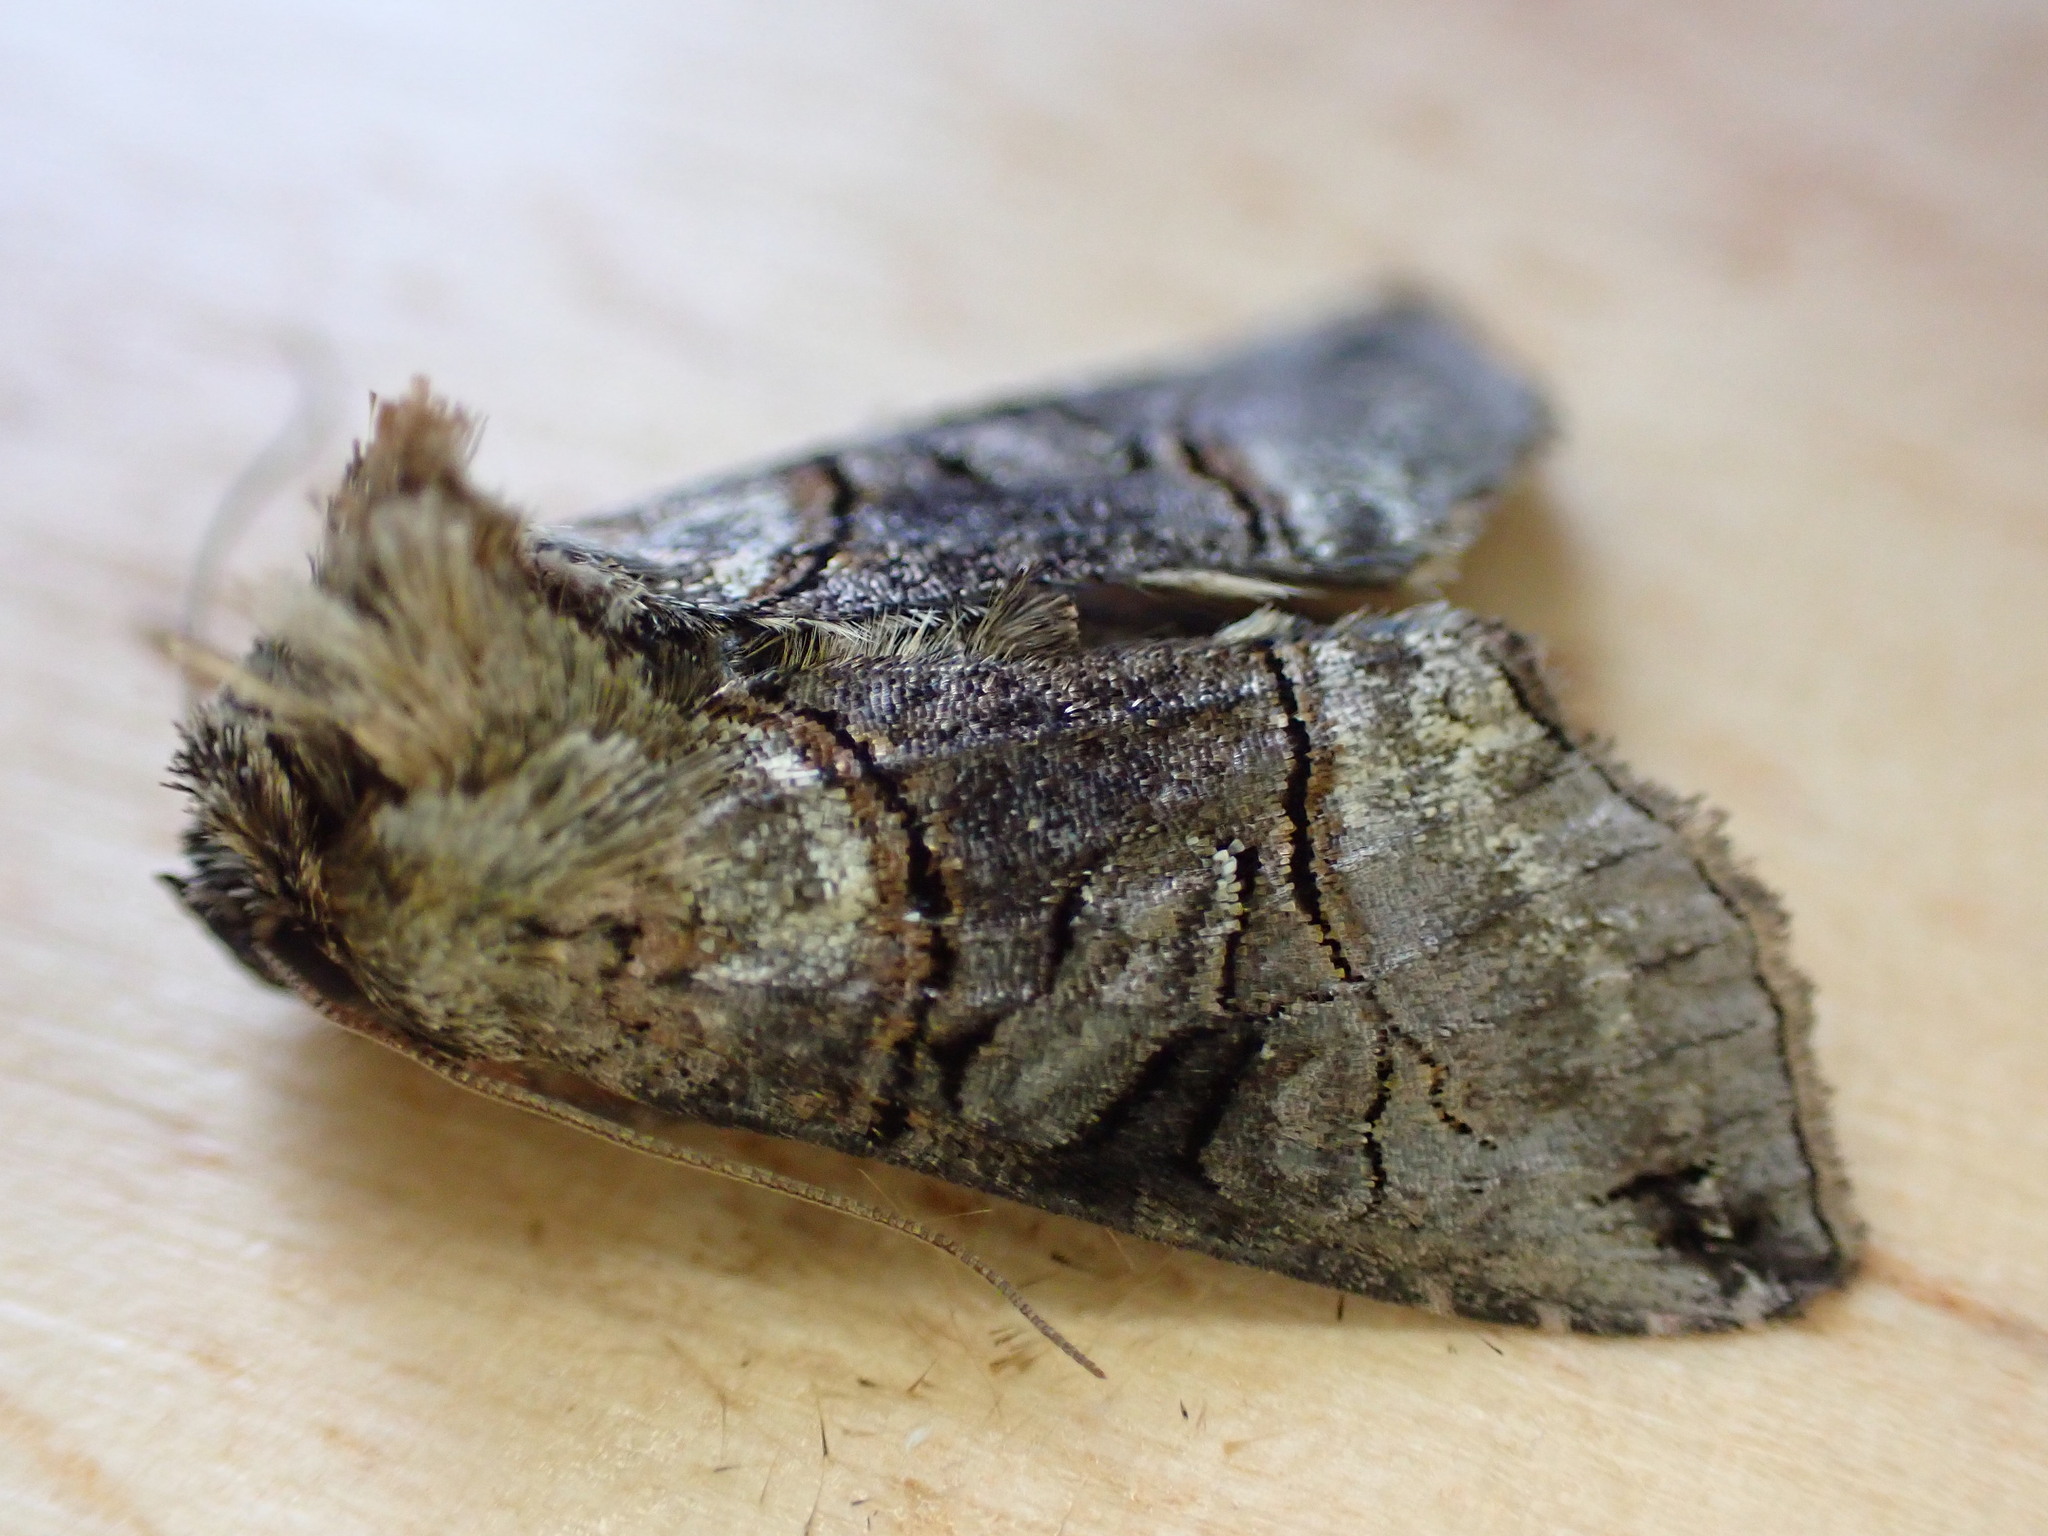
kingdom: Animalia
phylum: Arthropoda
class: Insecta
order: Lepidoptera
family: Noctuidae
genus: Abrostola
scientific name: Abrostola tripartita
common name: Spectacle
